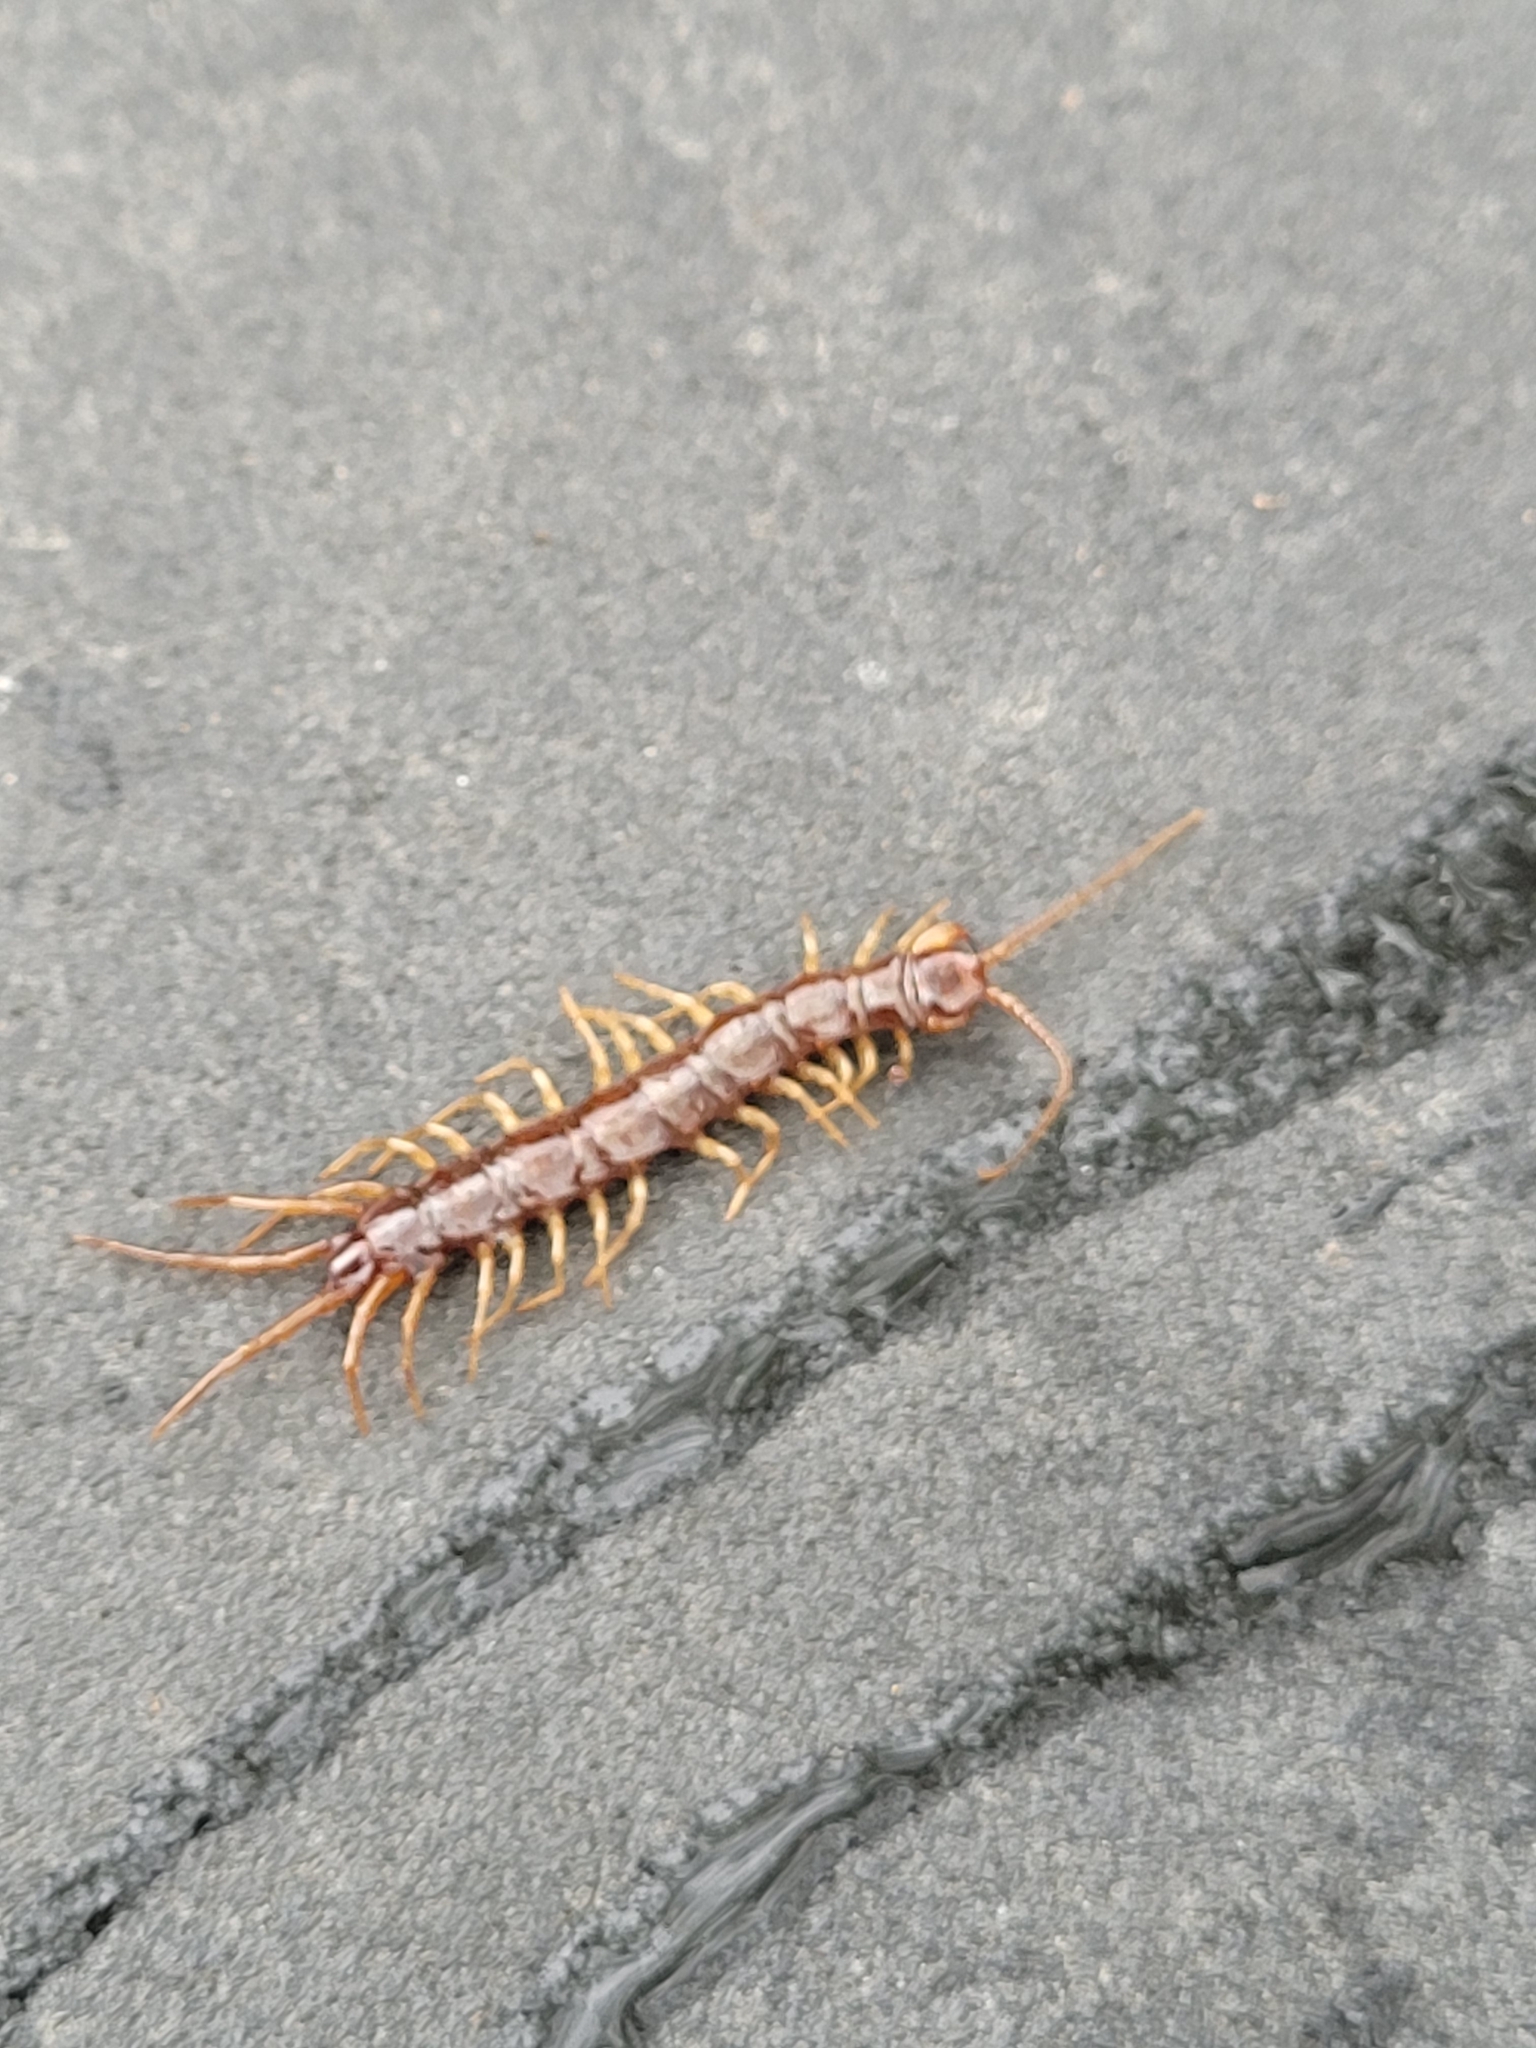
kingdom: Animalia
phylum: Arthropoda
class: Chilopoda
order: Lithobiomorpha
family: Lithobiidae
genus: Lithobius
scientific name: Lithobius forficatus
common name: Centipede
